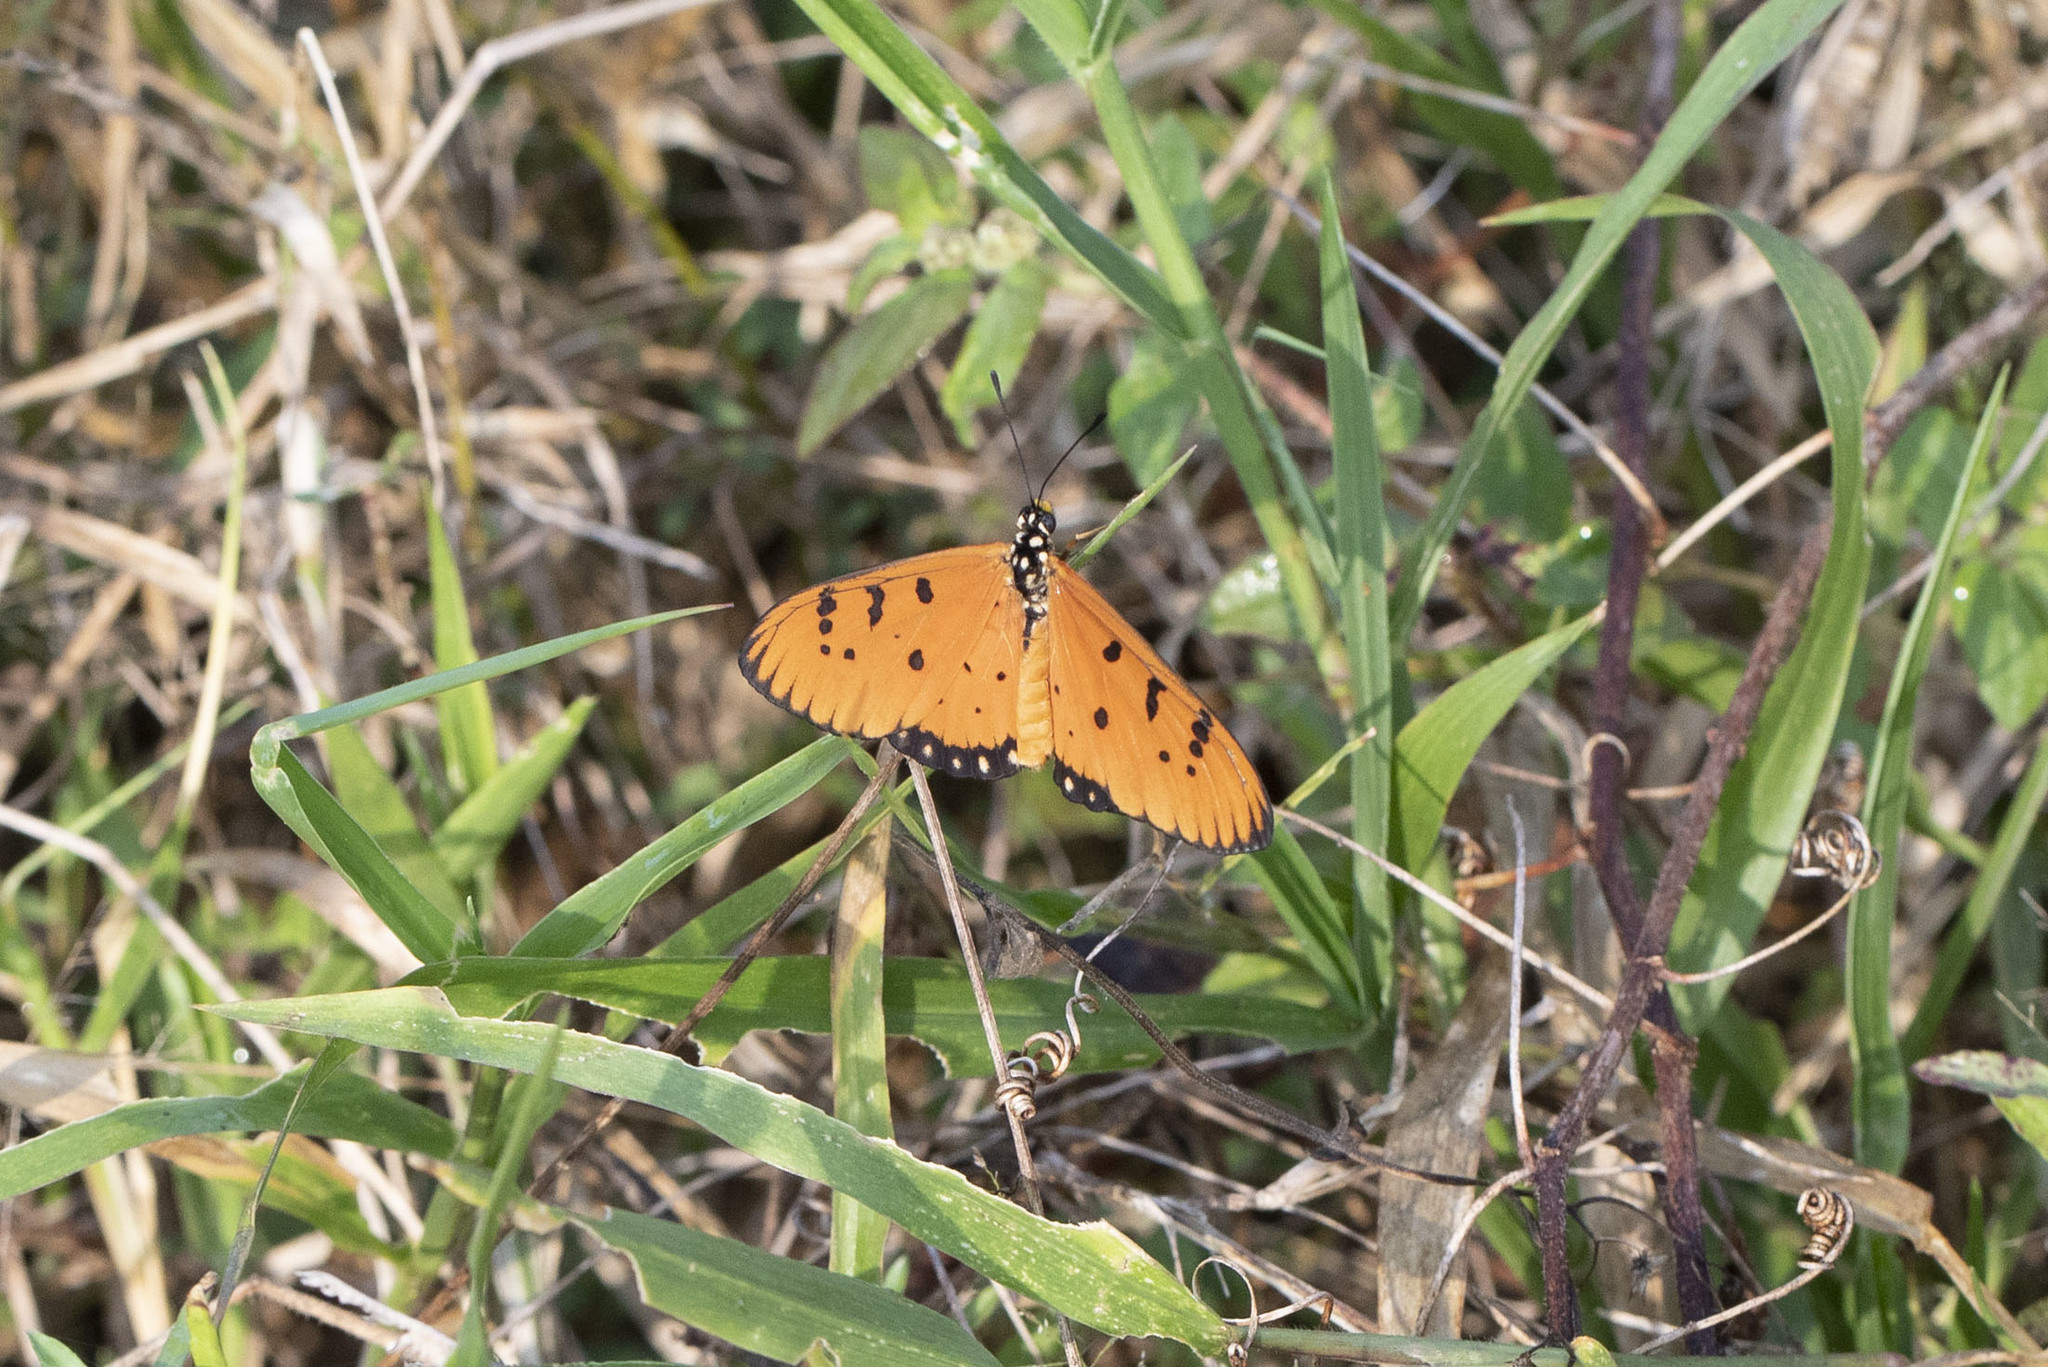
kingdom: Animalia
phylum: Arthropoda
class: Insecta
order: Lepidoptera
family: Nymphalidae
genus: Acraea
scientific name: Acraea terpsicore
